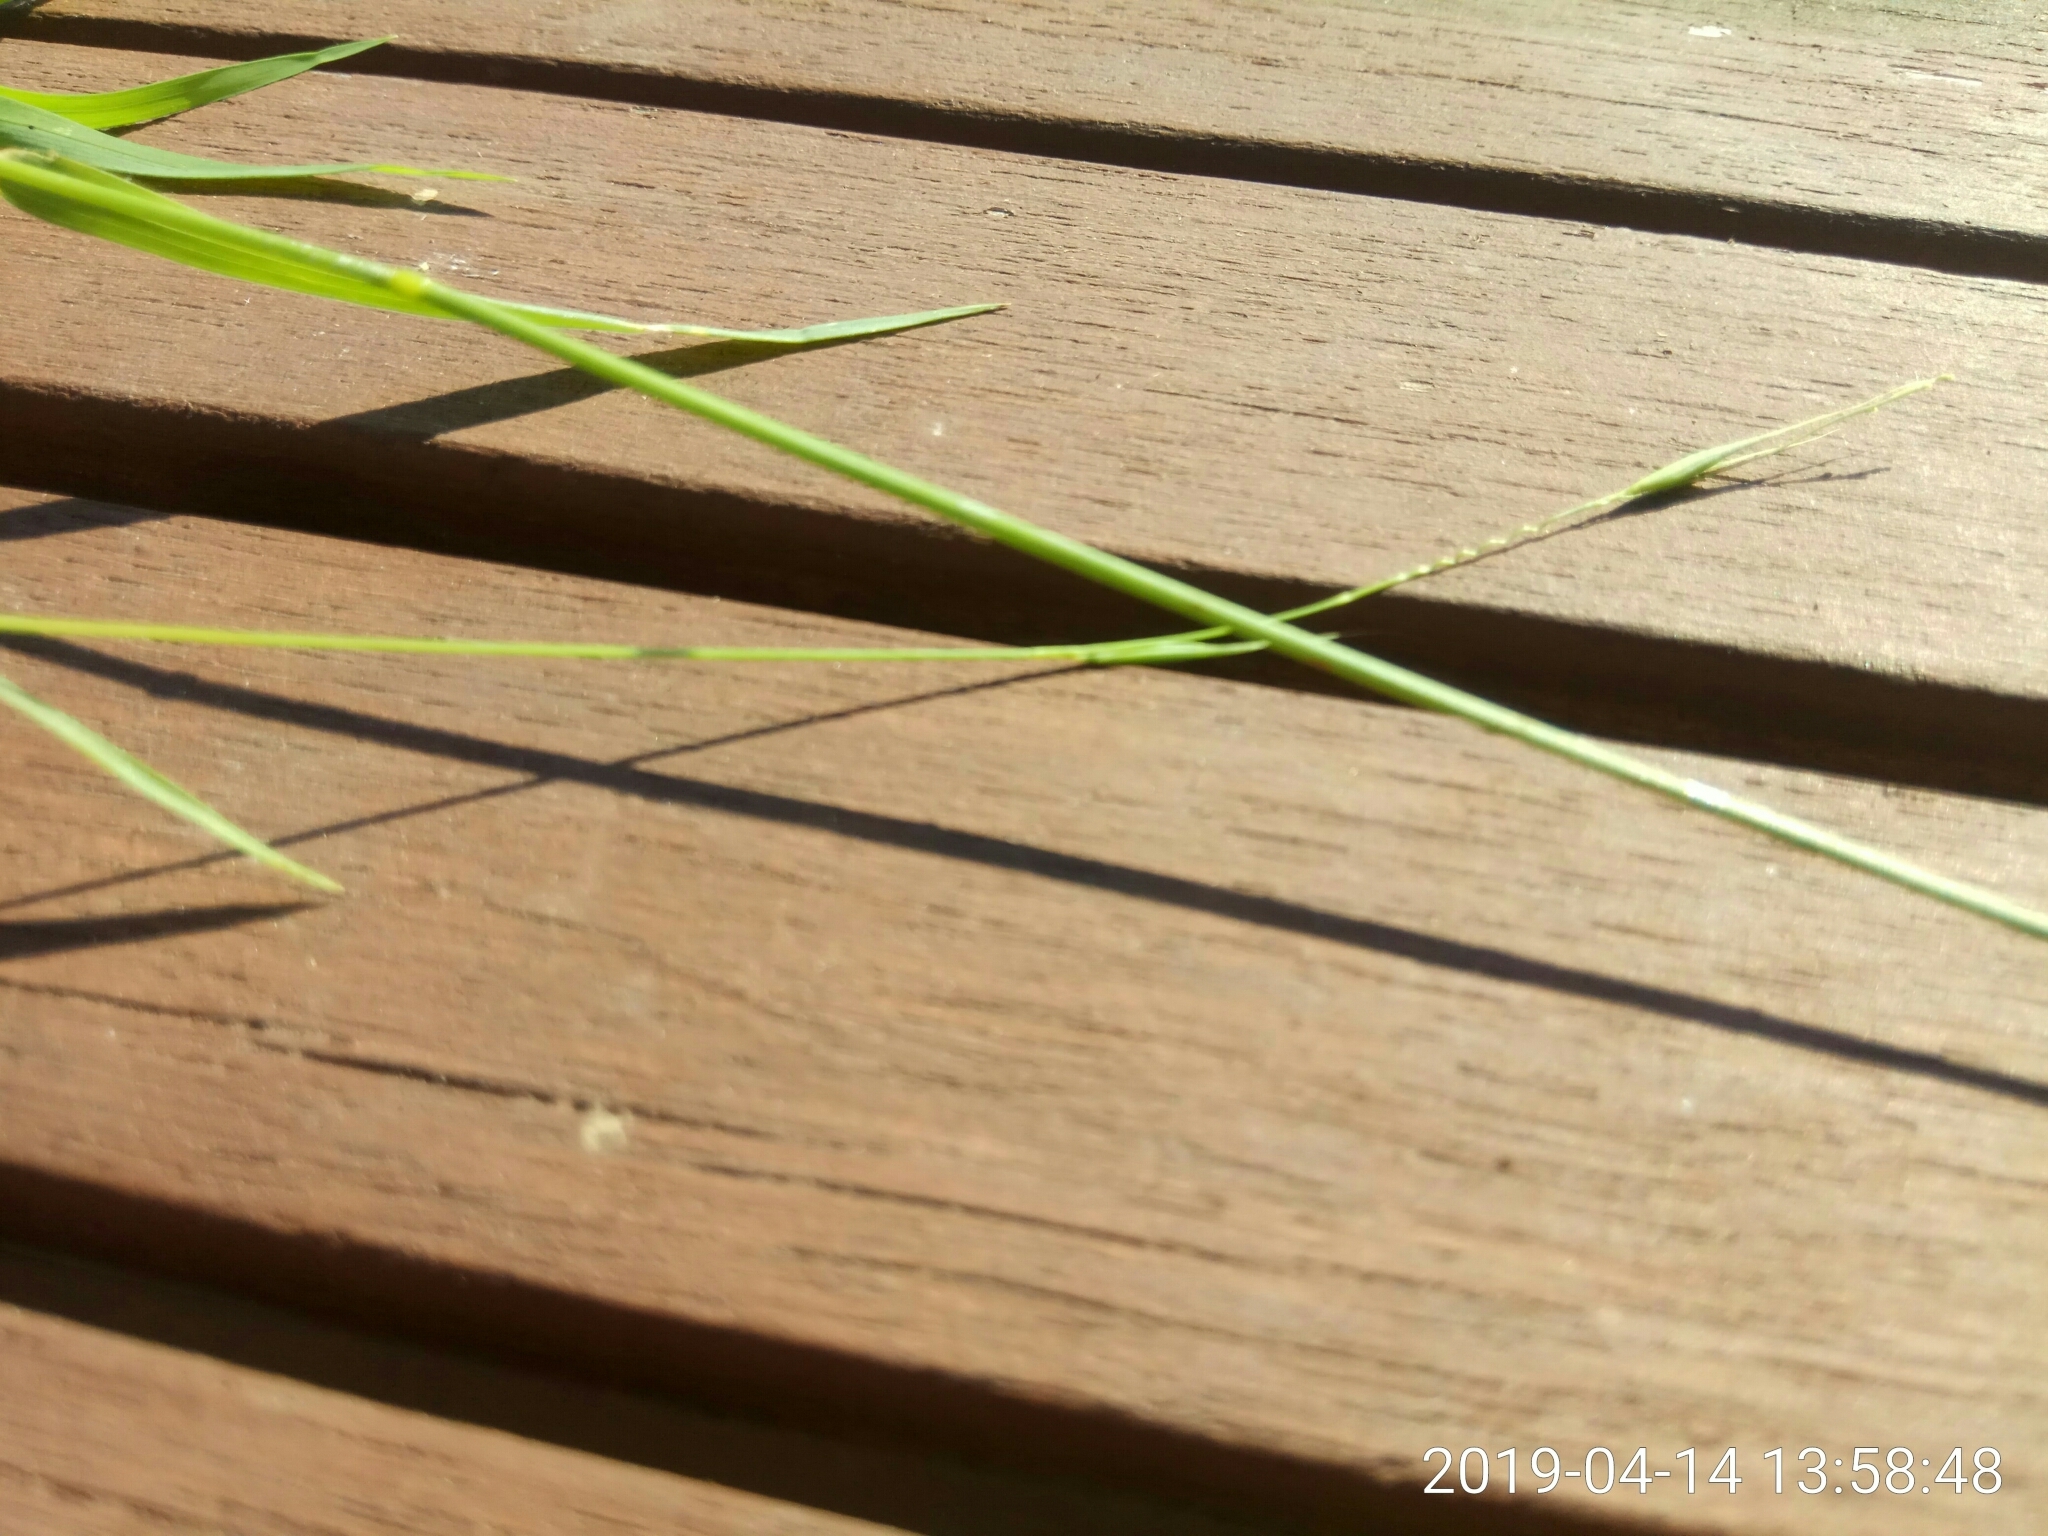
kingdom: Plantae
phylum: Tracheophyta
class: Liliopsida
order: Poales
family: Poaceae
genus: Microlaena
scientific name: Microlaena stipoides
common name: Meadow ricegrass
